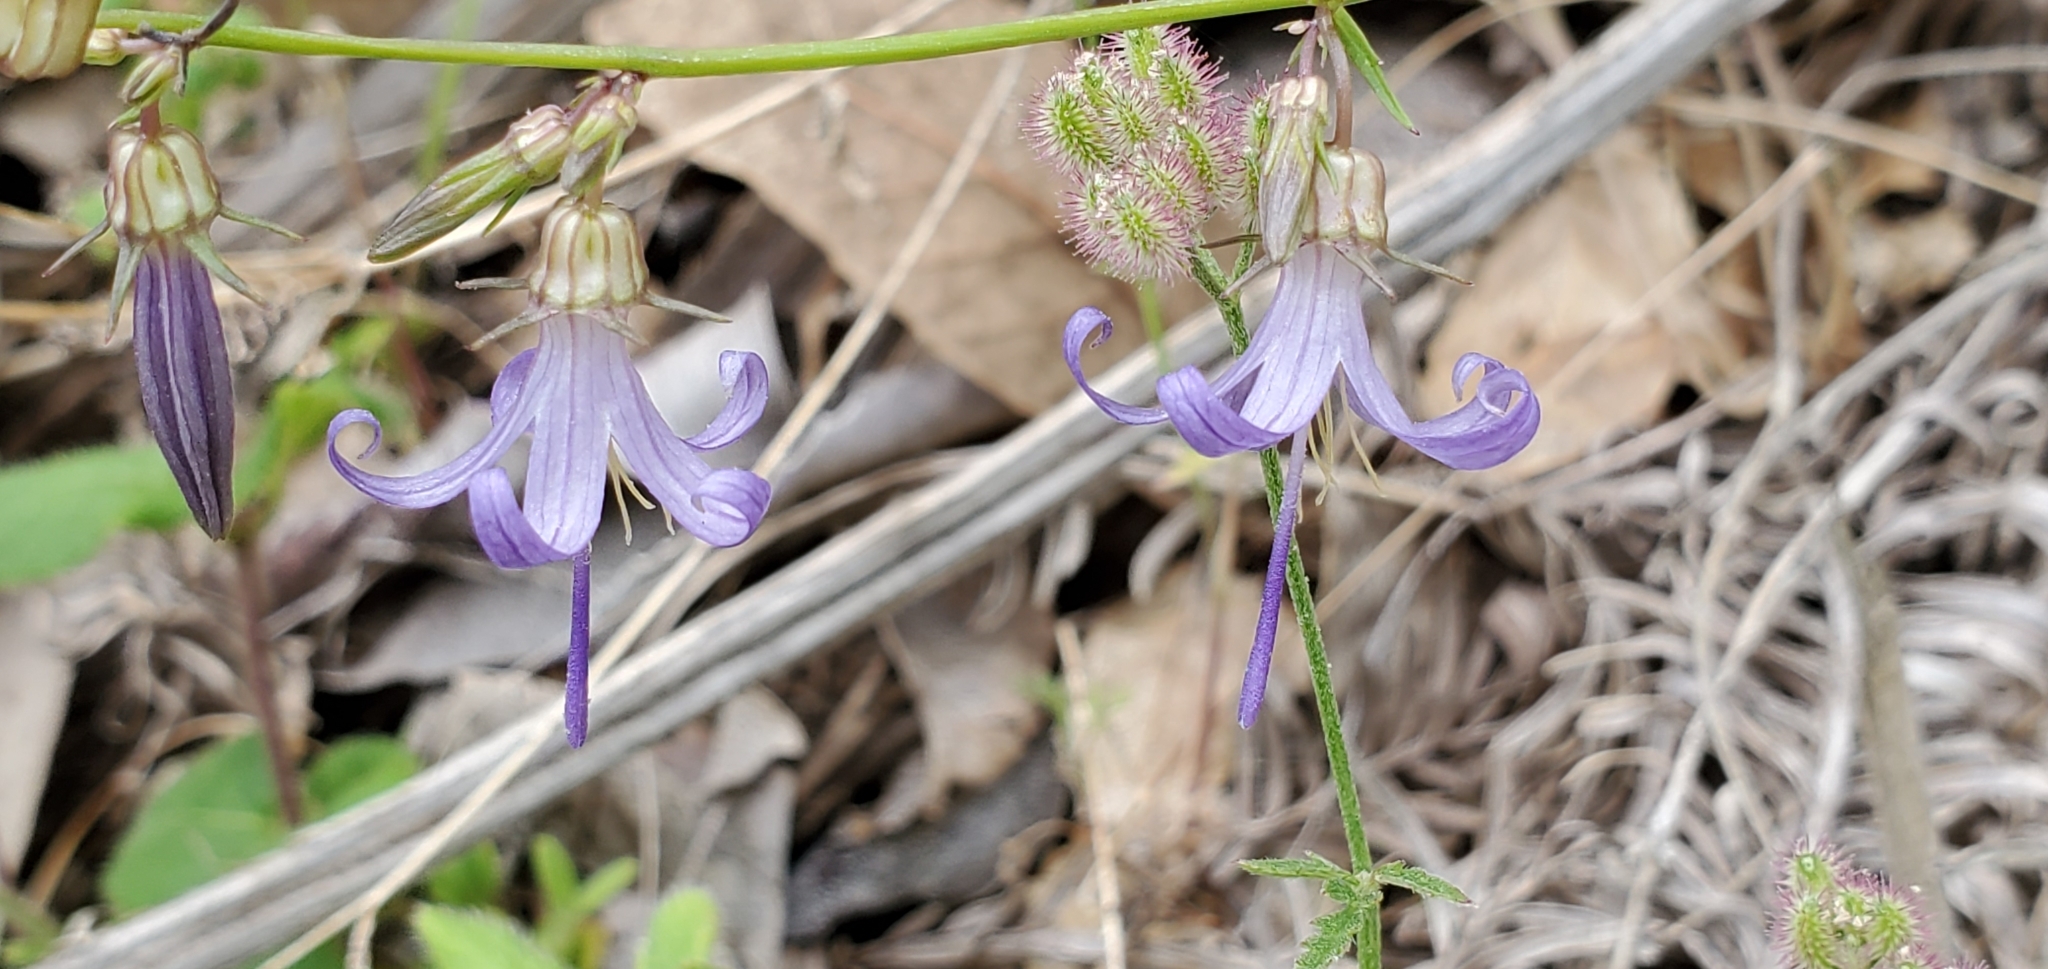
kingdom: Plantae
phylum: Tracheophyta
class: Magnoliopsida
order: Asterales
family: Campanulaceae
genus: Smithiastrum
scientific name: Smithiastrum prenanthoides
